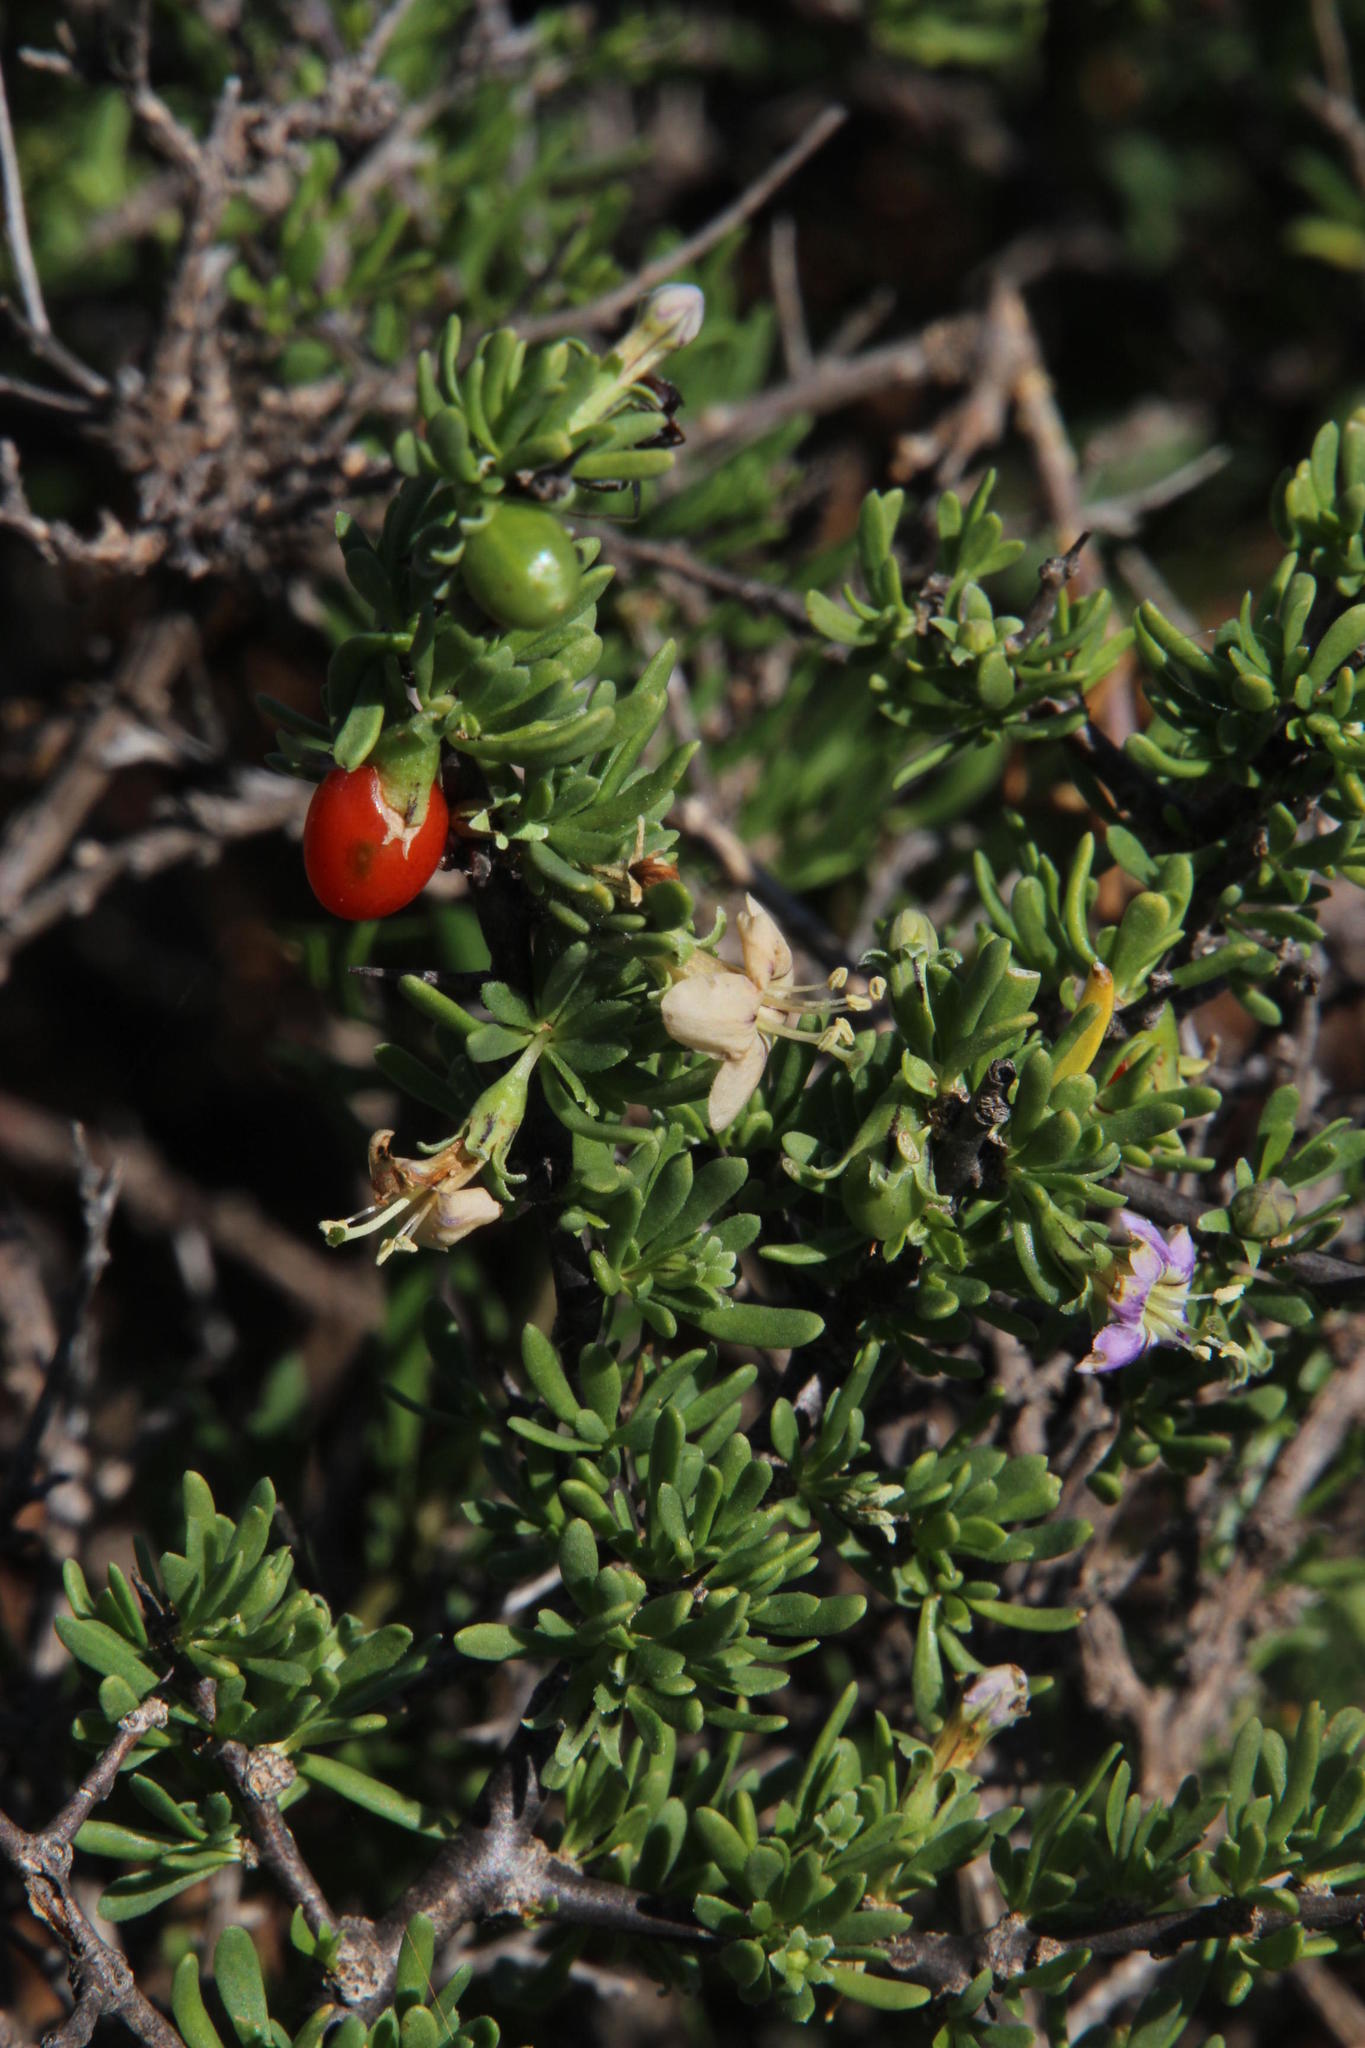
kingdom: Plantae
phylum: Tracheophyta
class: Magnoliopsida
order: Solanales
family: Solanaceae
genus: Lycium
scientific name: Lycium schizocalyx
